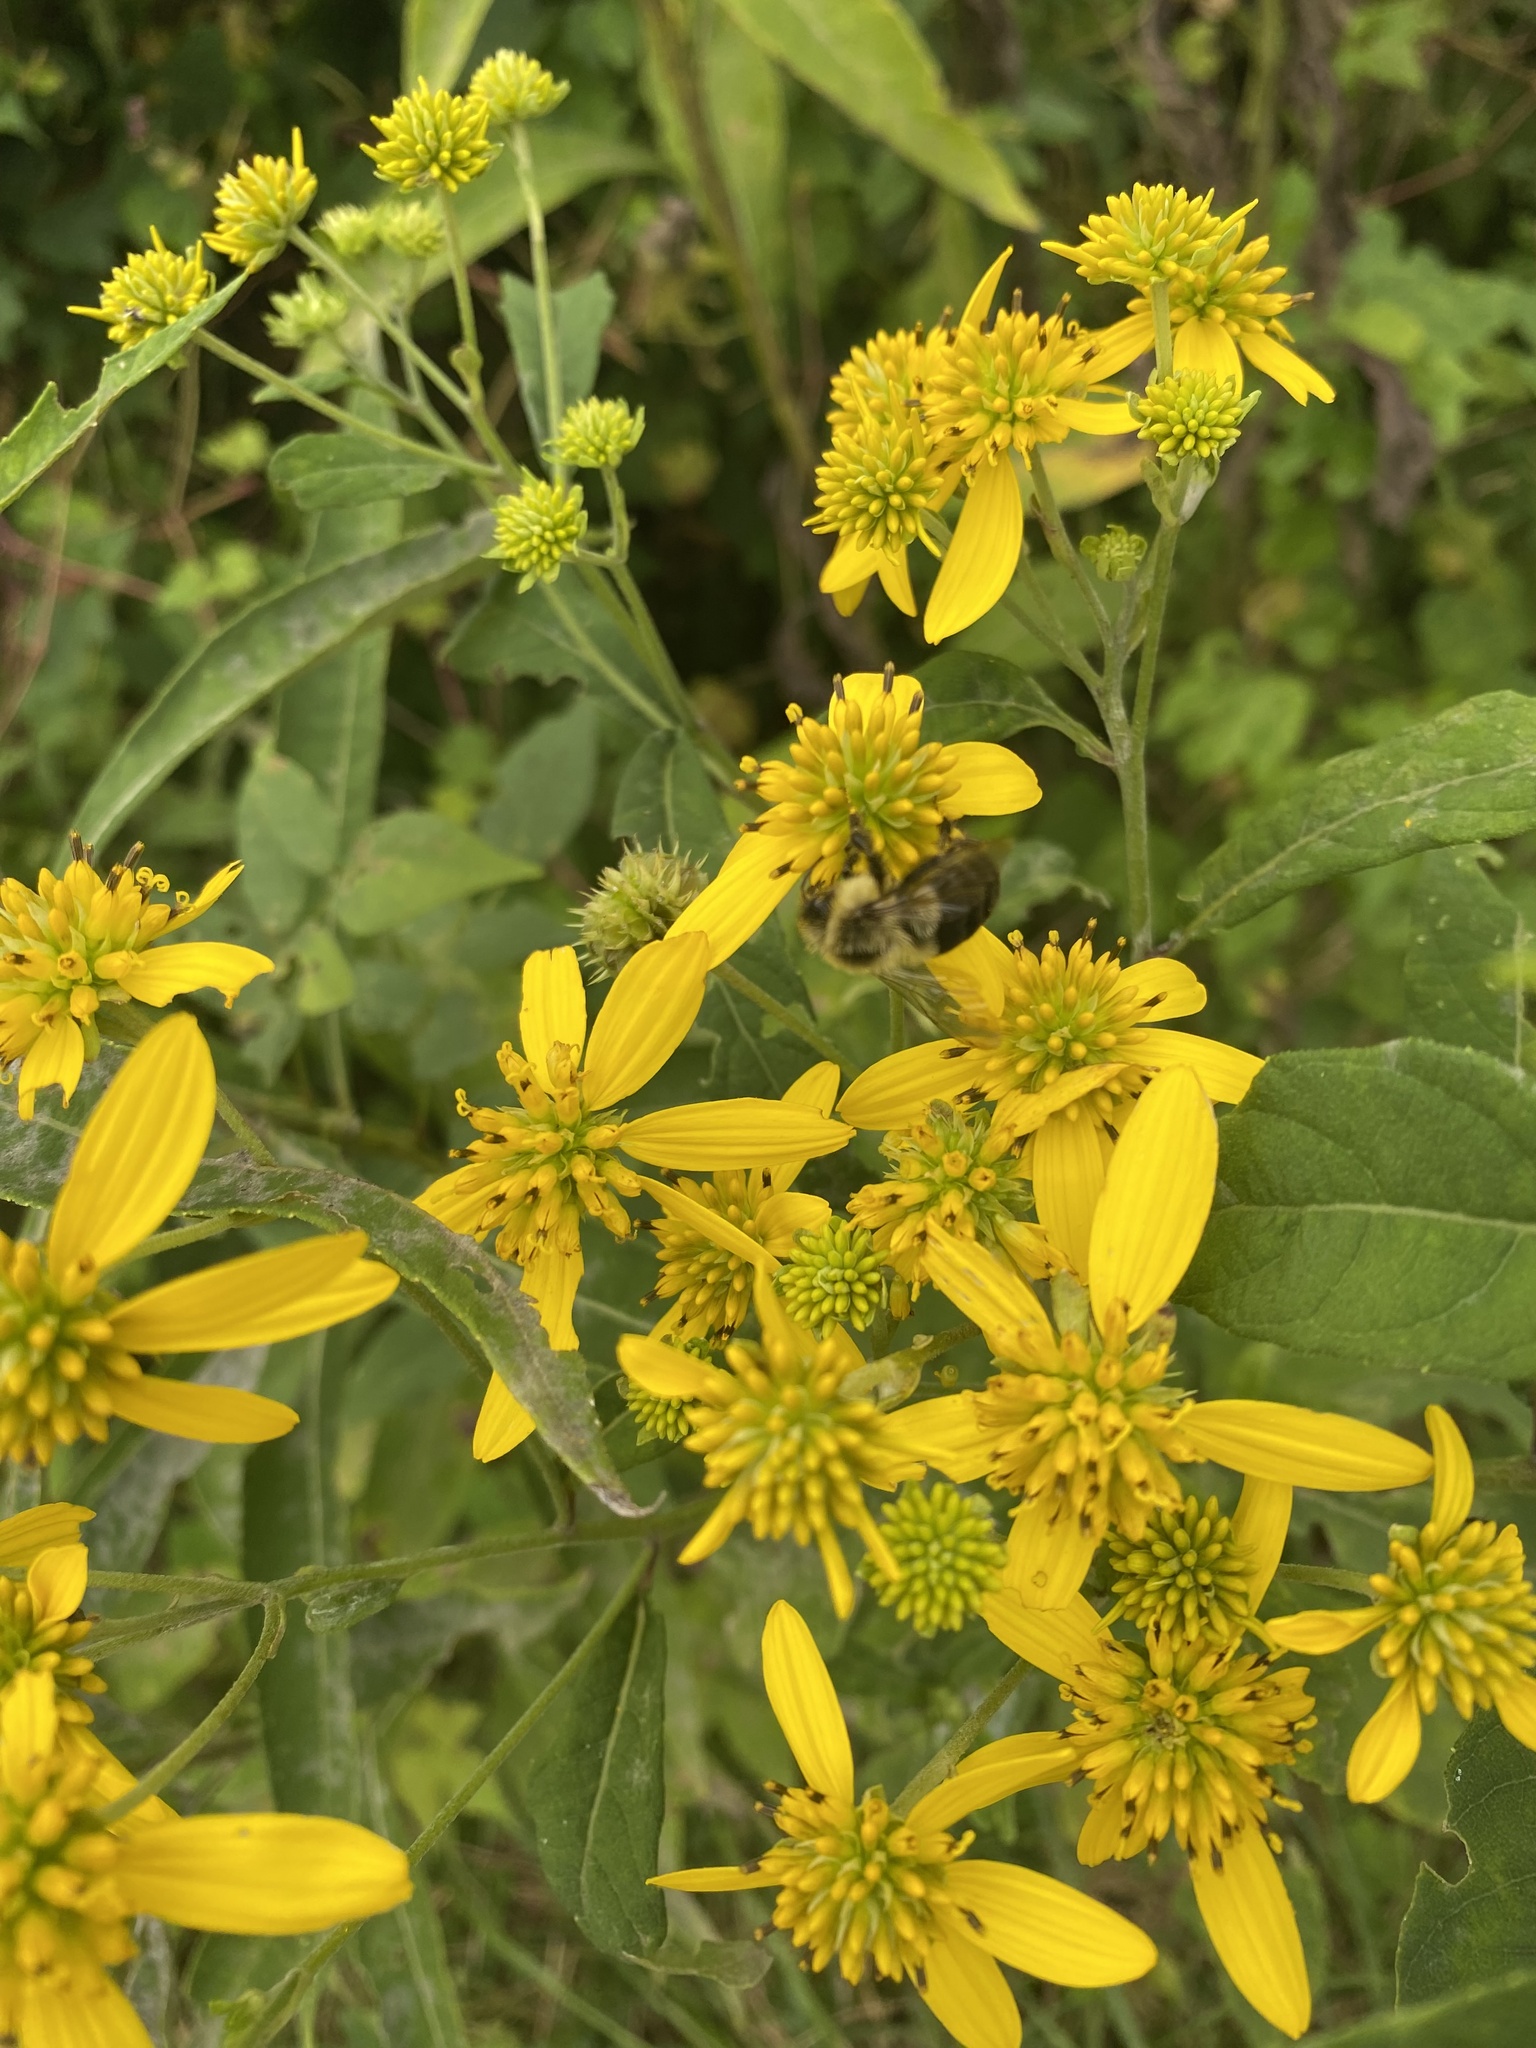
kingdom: Plantae
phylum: Tracheophyta
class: Magnoliopsida
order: Asterales
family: Asteraceae
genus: Verbesina
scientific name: Verbesina alternifolia
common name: Wingstem
